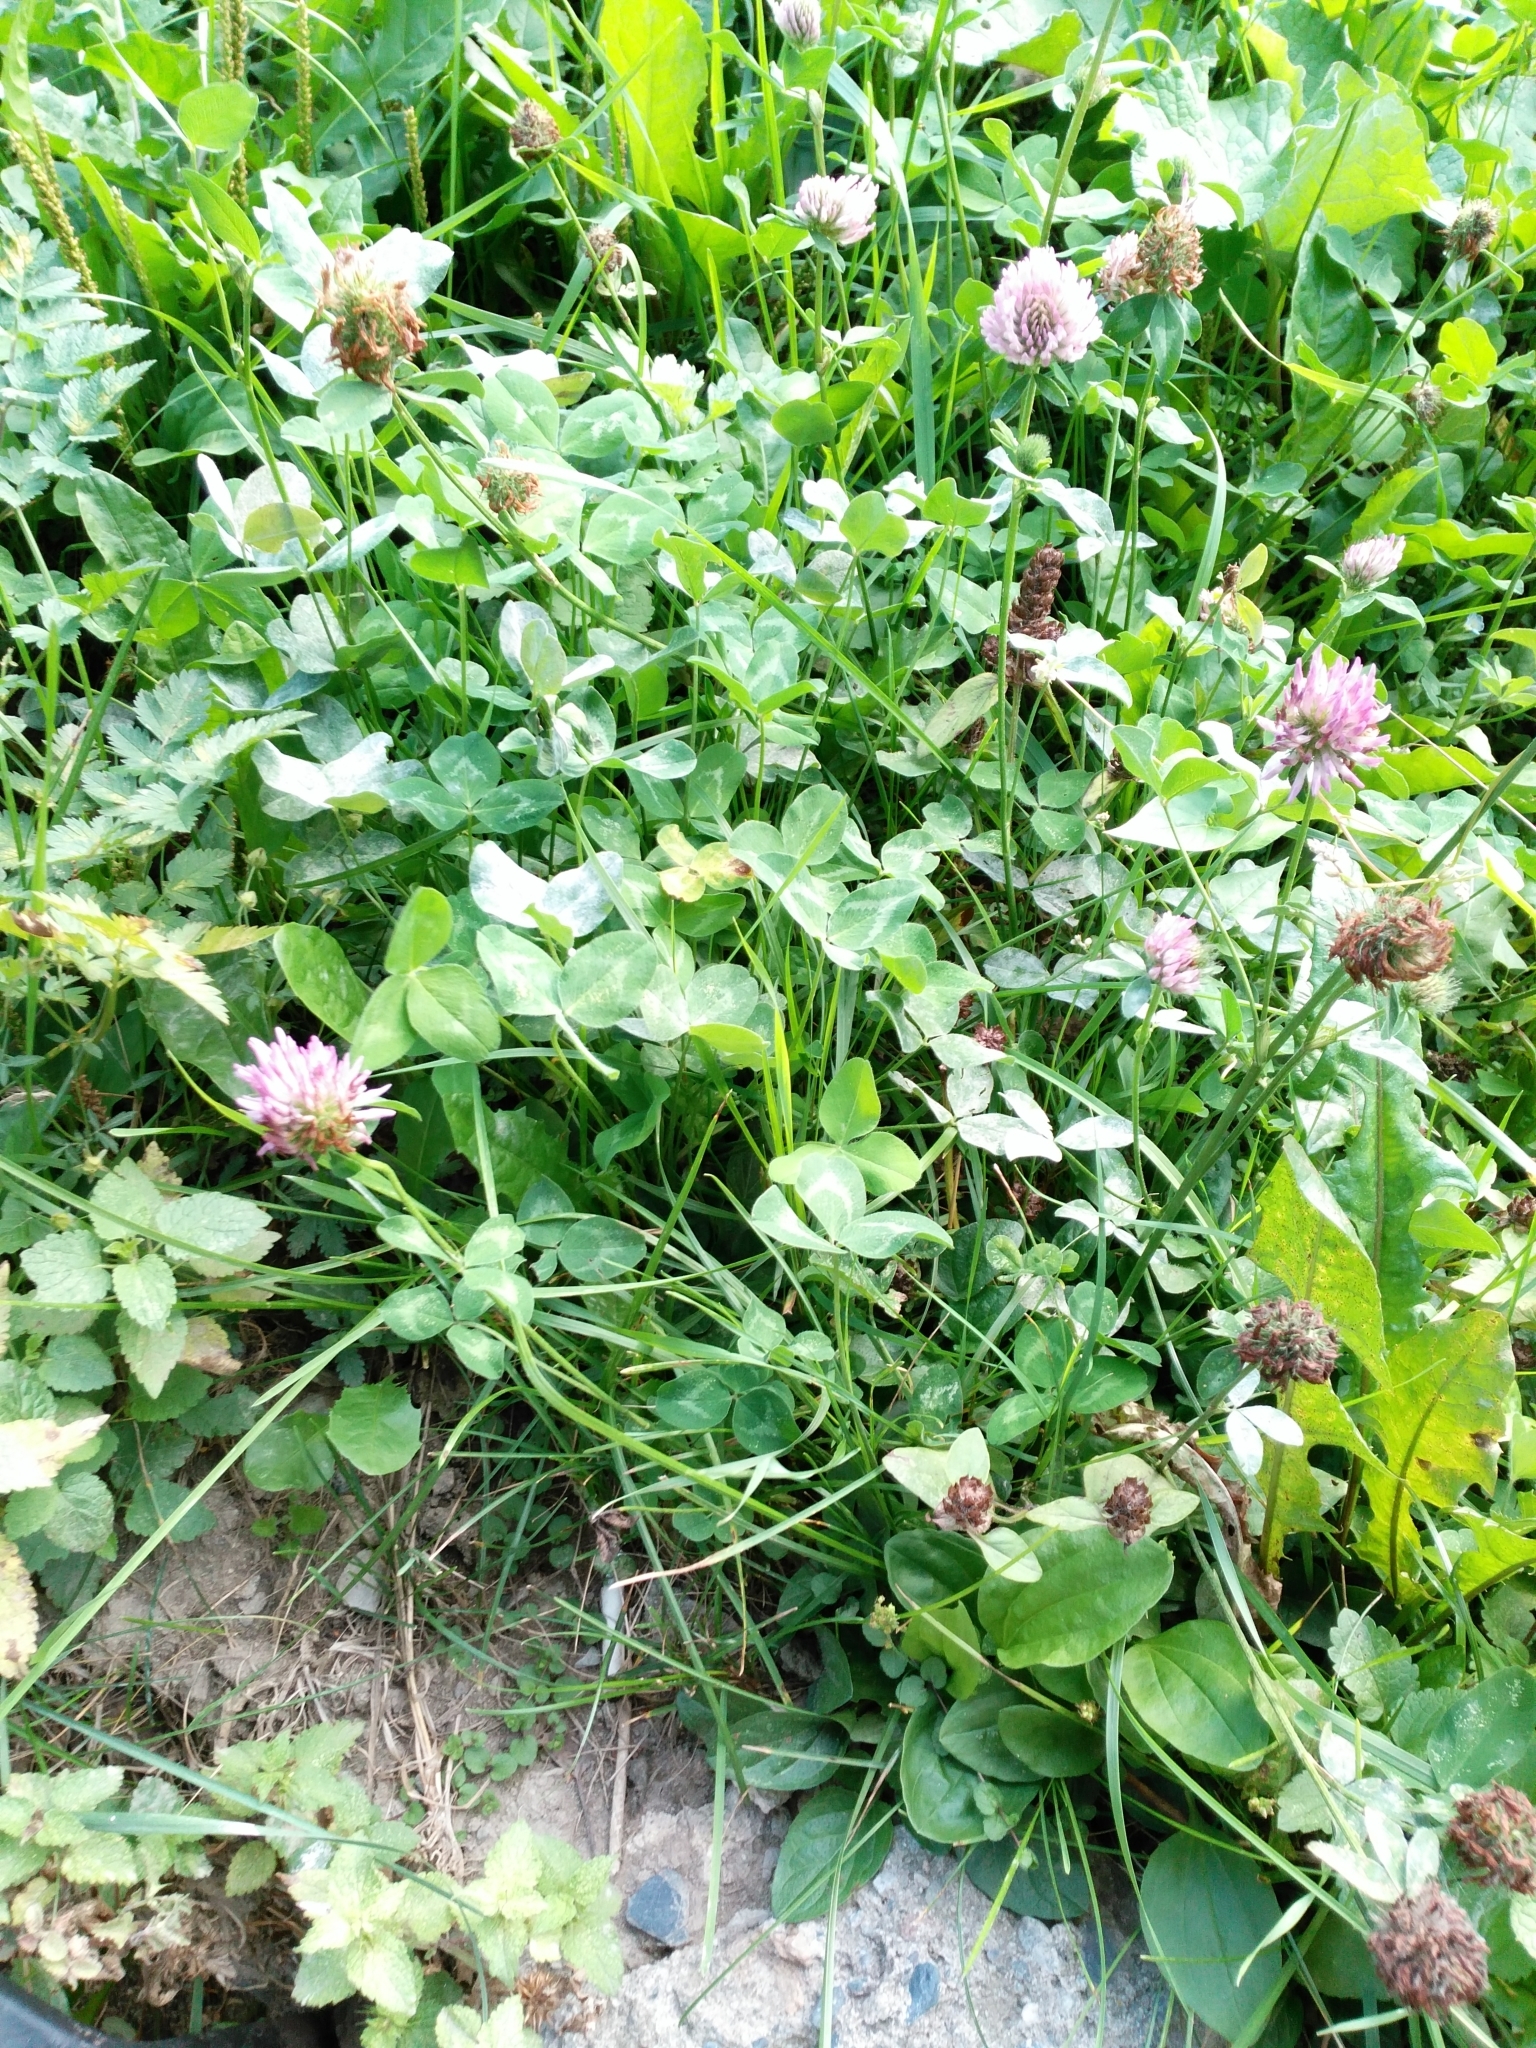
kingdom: Plantae
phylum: Tracheophyta
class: Magnoliopsida
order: Fabales
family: Fabaceae
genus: Trifolium
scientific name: Trifolium pratense
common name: Red clover
